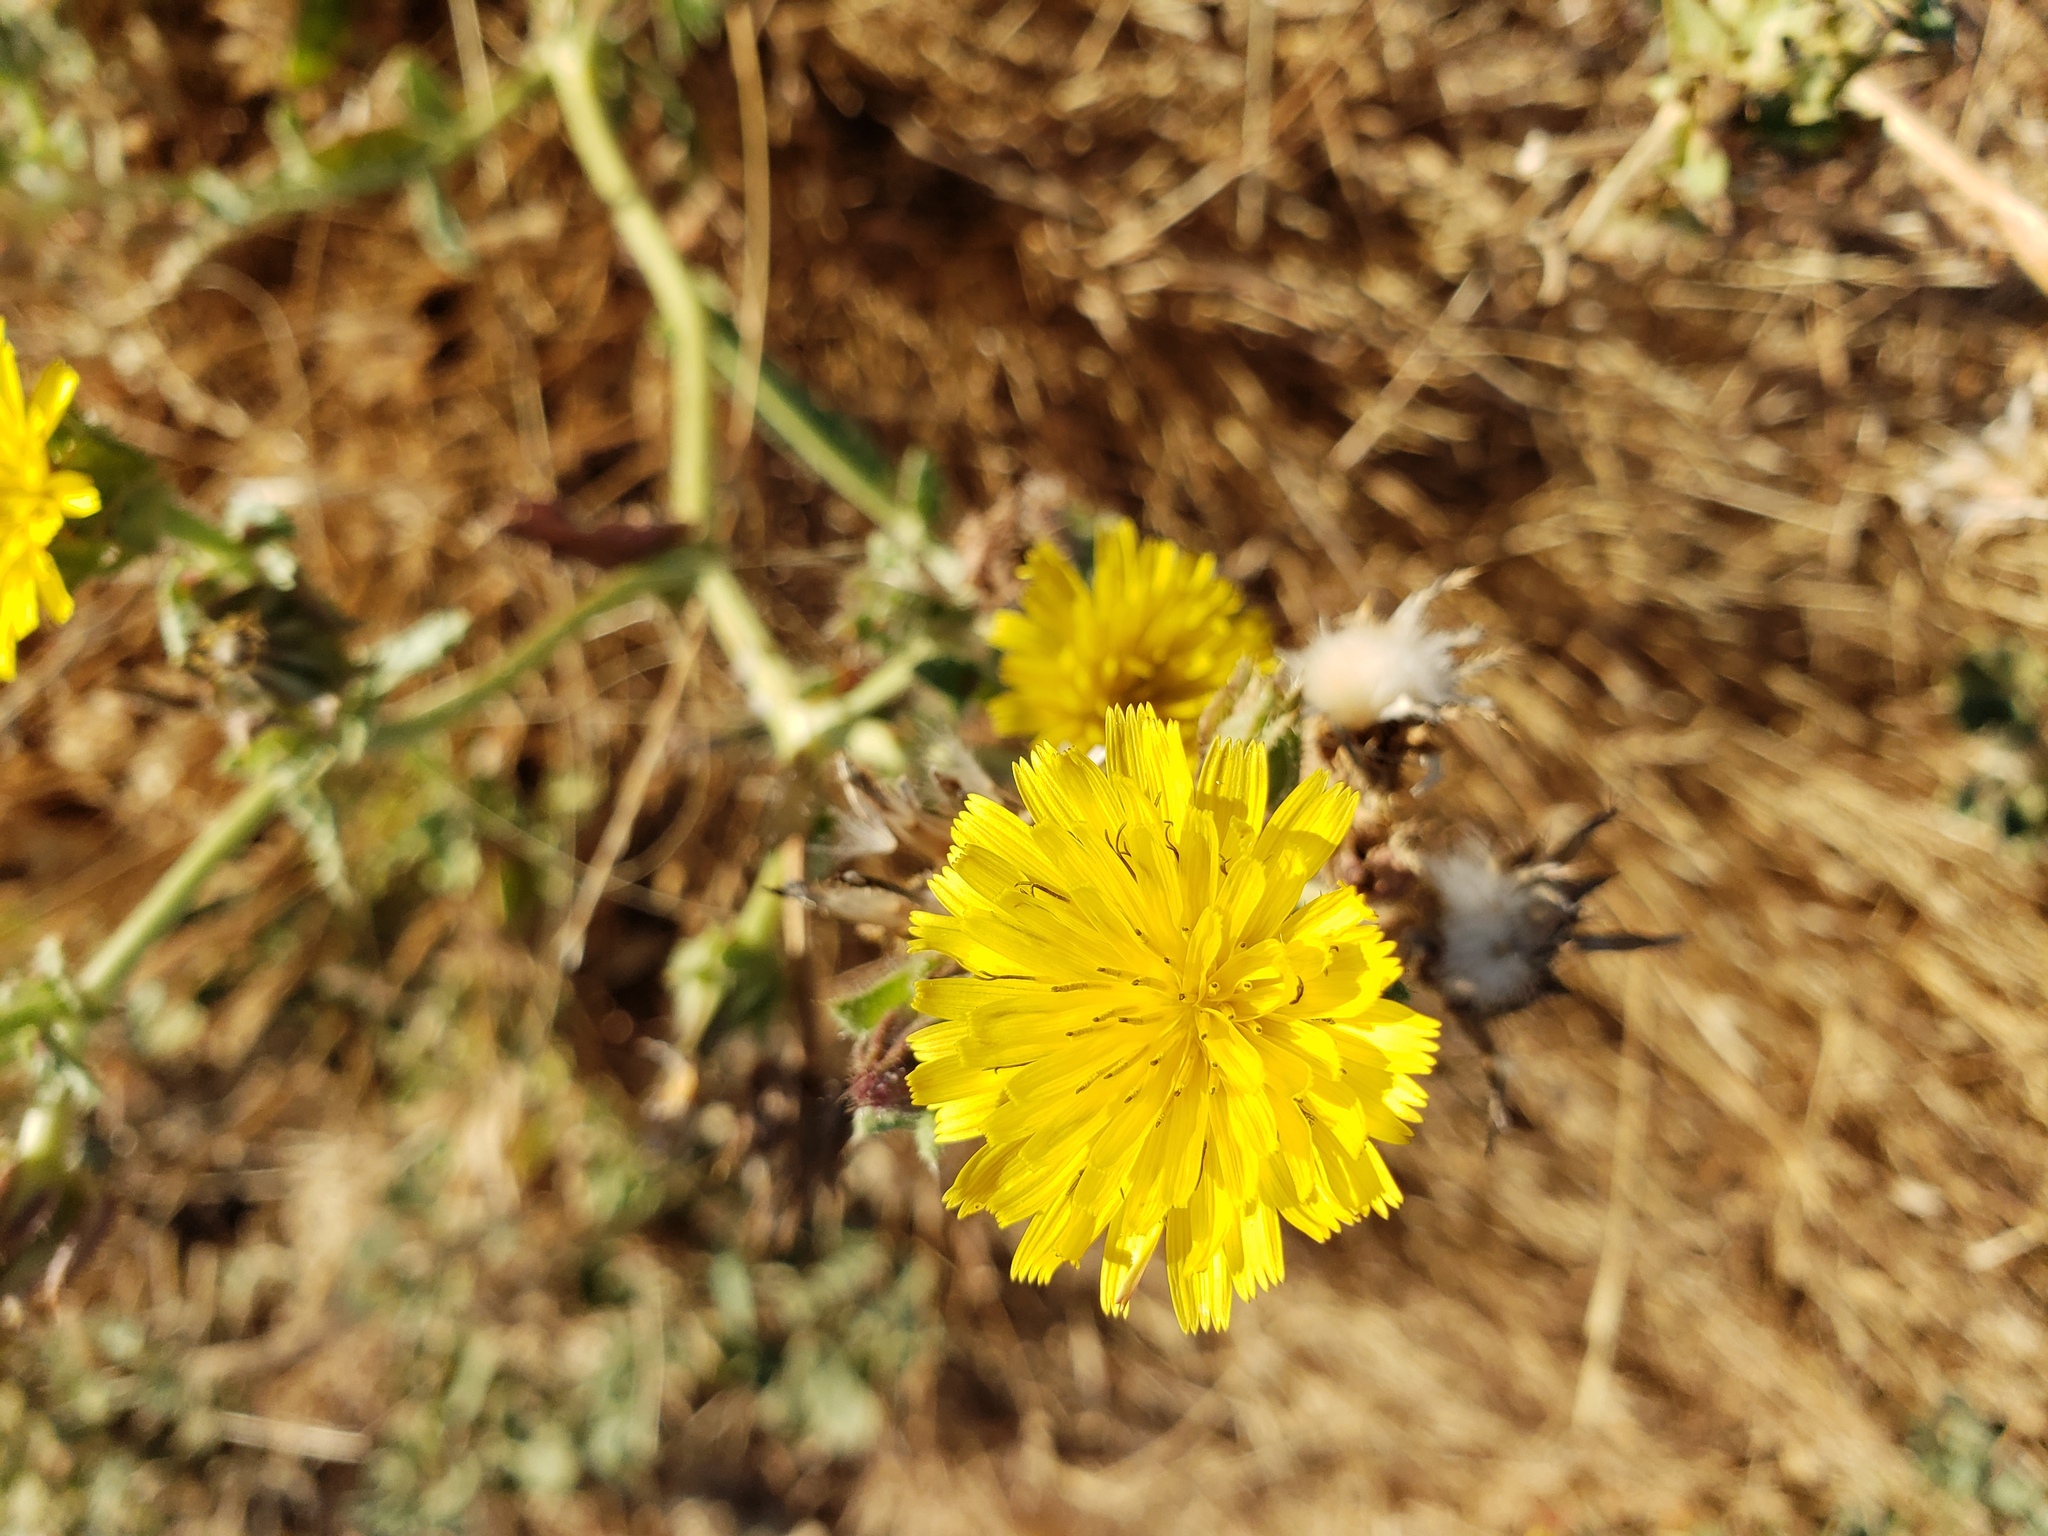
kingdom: Plantae
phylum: Tracheophyta
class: Magnoliopsida
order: Asterales
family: Asteraceae
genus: Helminthotheca
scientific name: Helminthotheca echioides
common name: Ox-tongue
